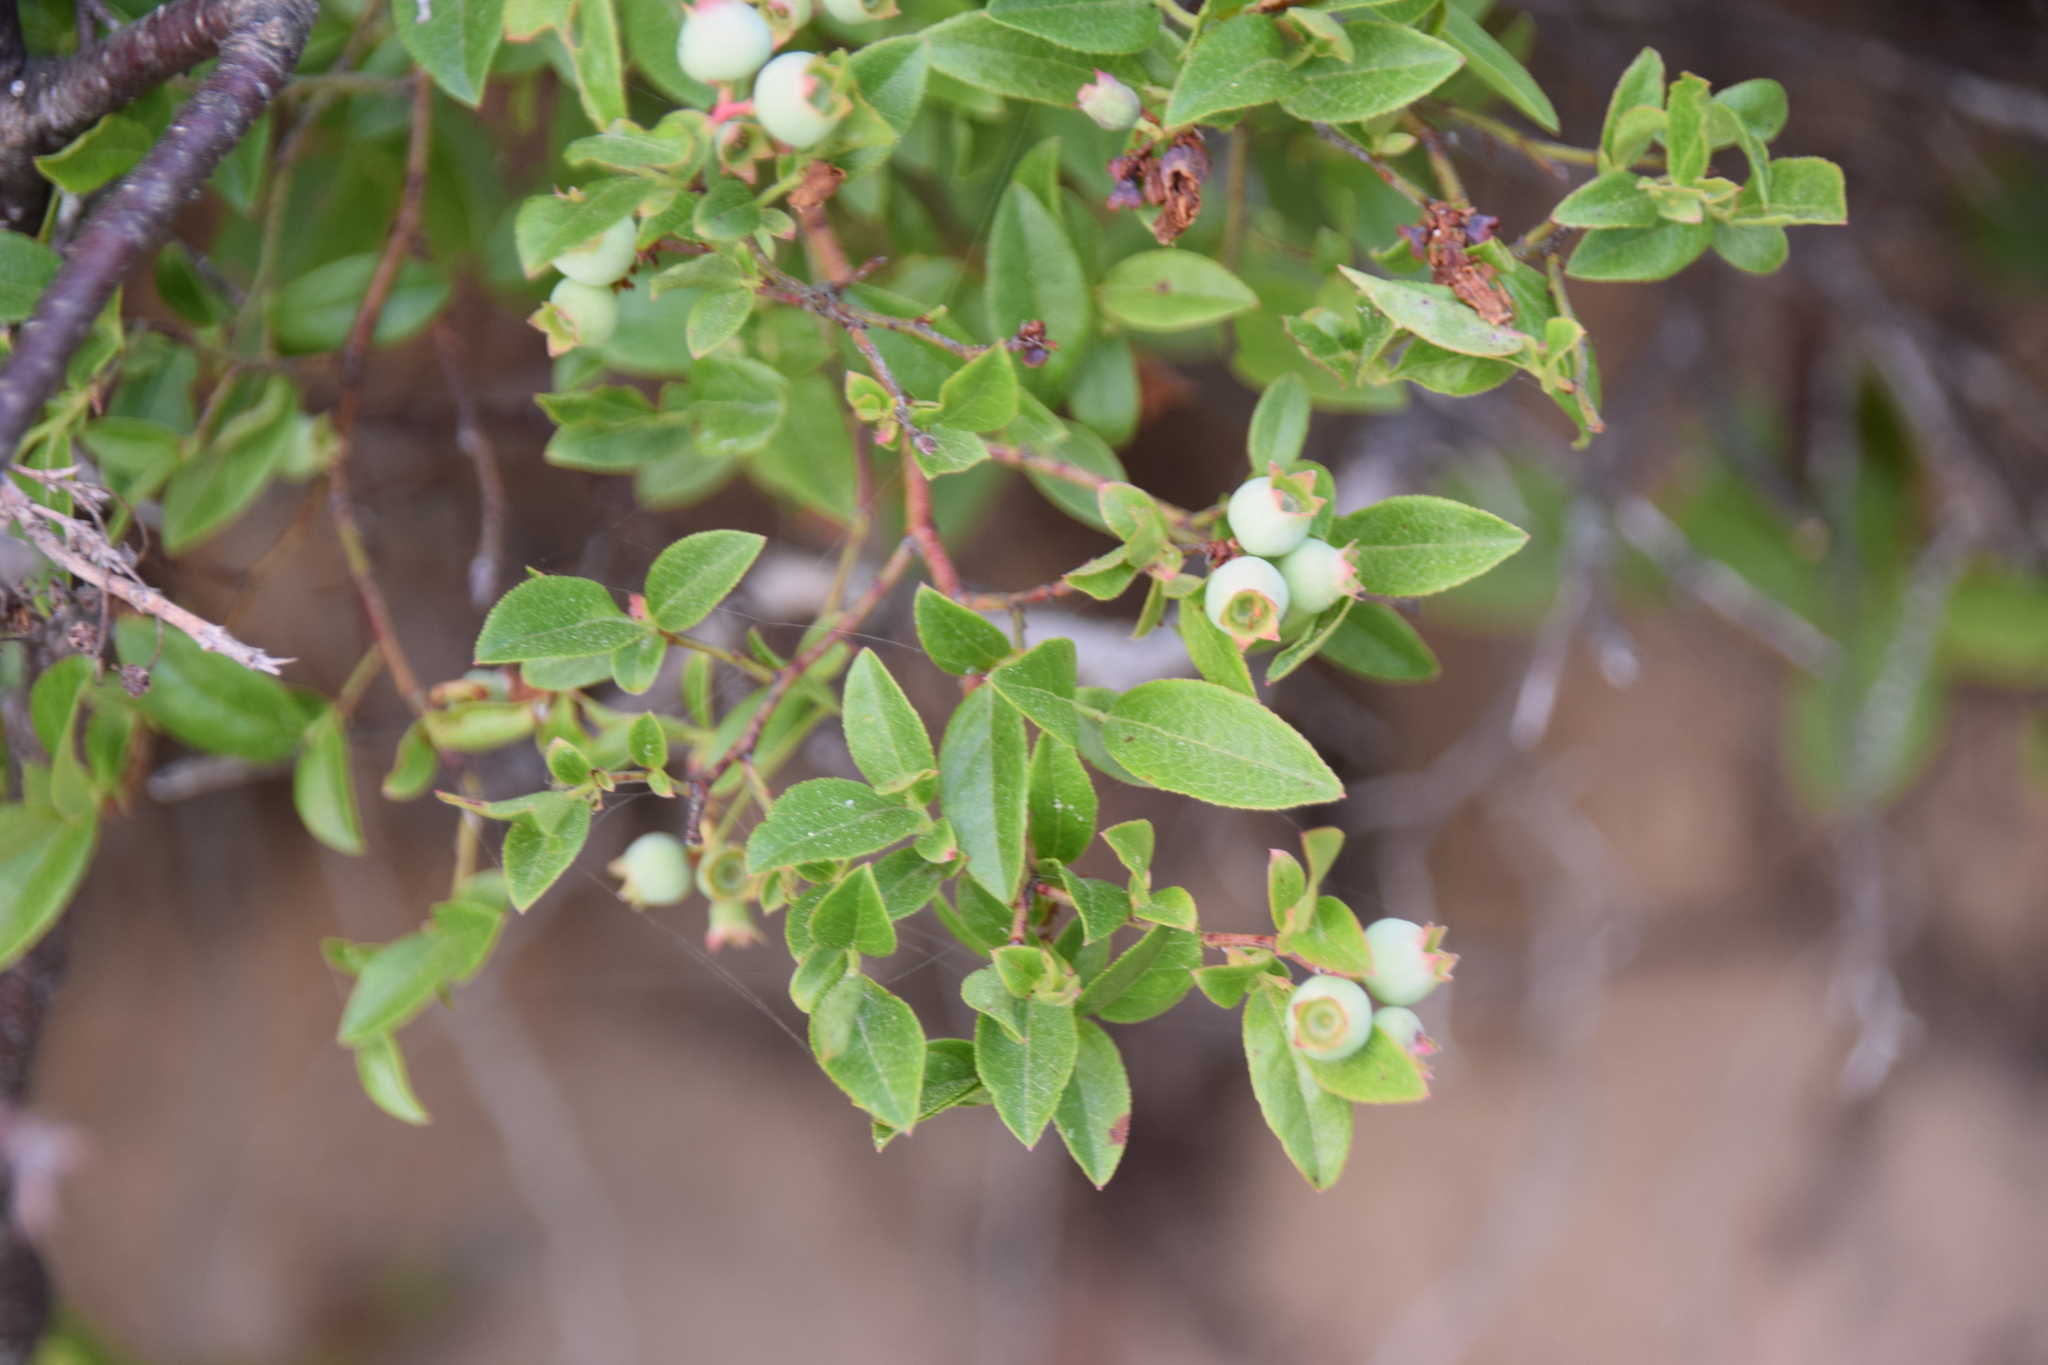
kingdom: Plantae
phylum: Tracheophyta
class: Magnoliopsida
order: Ericales
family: Ericaceae
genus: Vaccinium
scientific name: Vaccinium angustifolium
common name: Early lowbush blueberry
